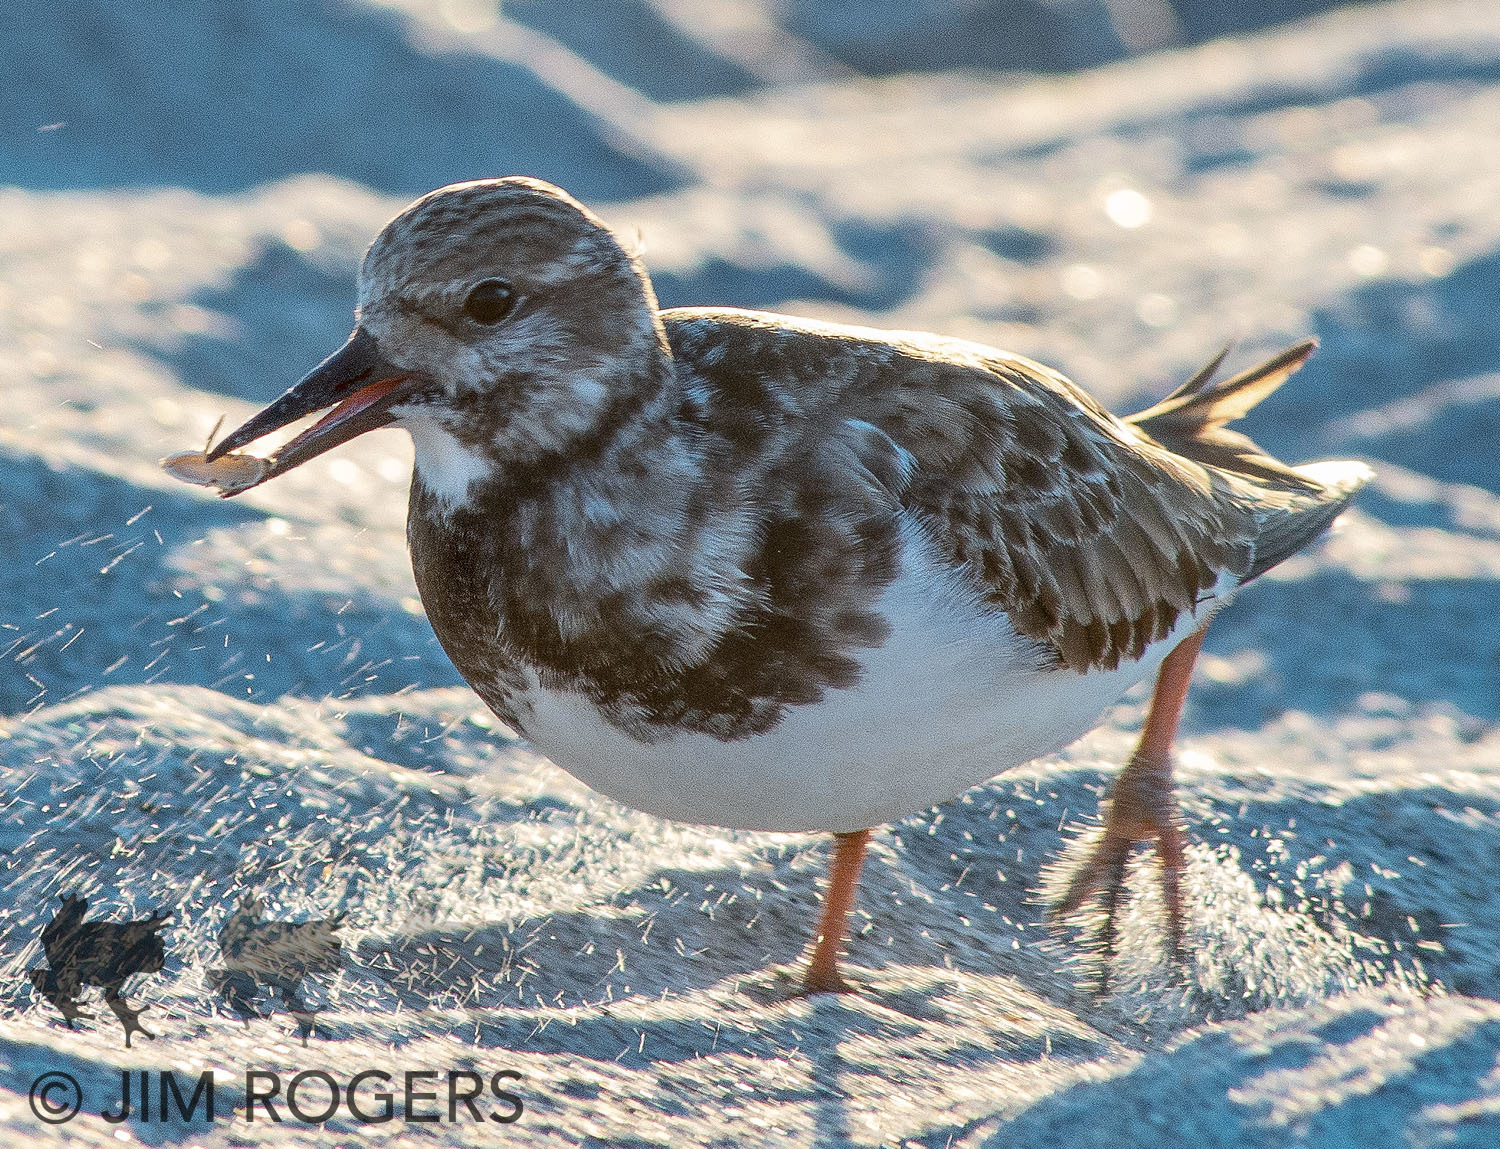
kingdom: Animalia
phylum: Chordata
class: Aves
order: Charadriiformes
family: Scolopacidae
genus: Arenaria
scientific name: Arenaria interpres
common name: Ruddy turnstone
